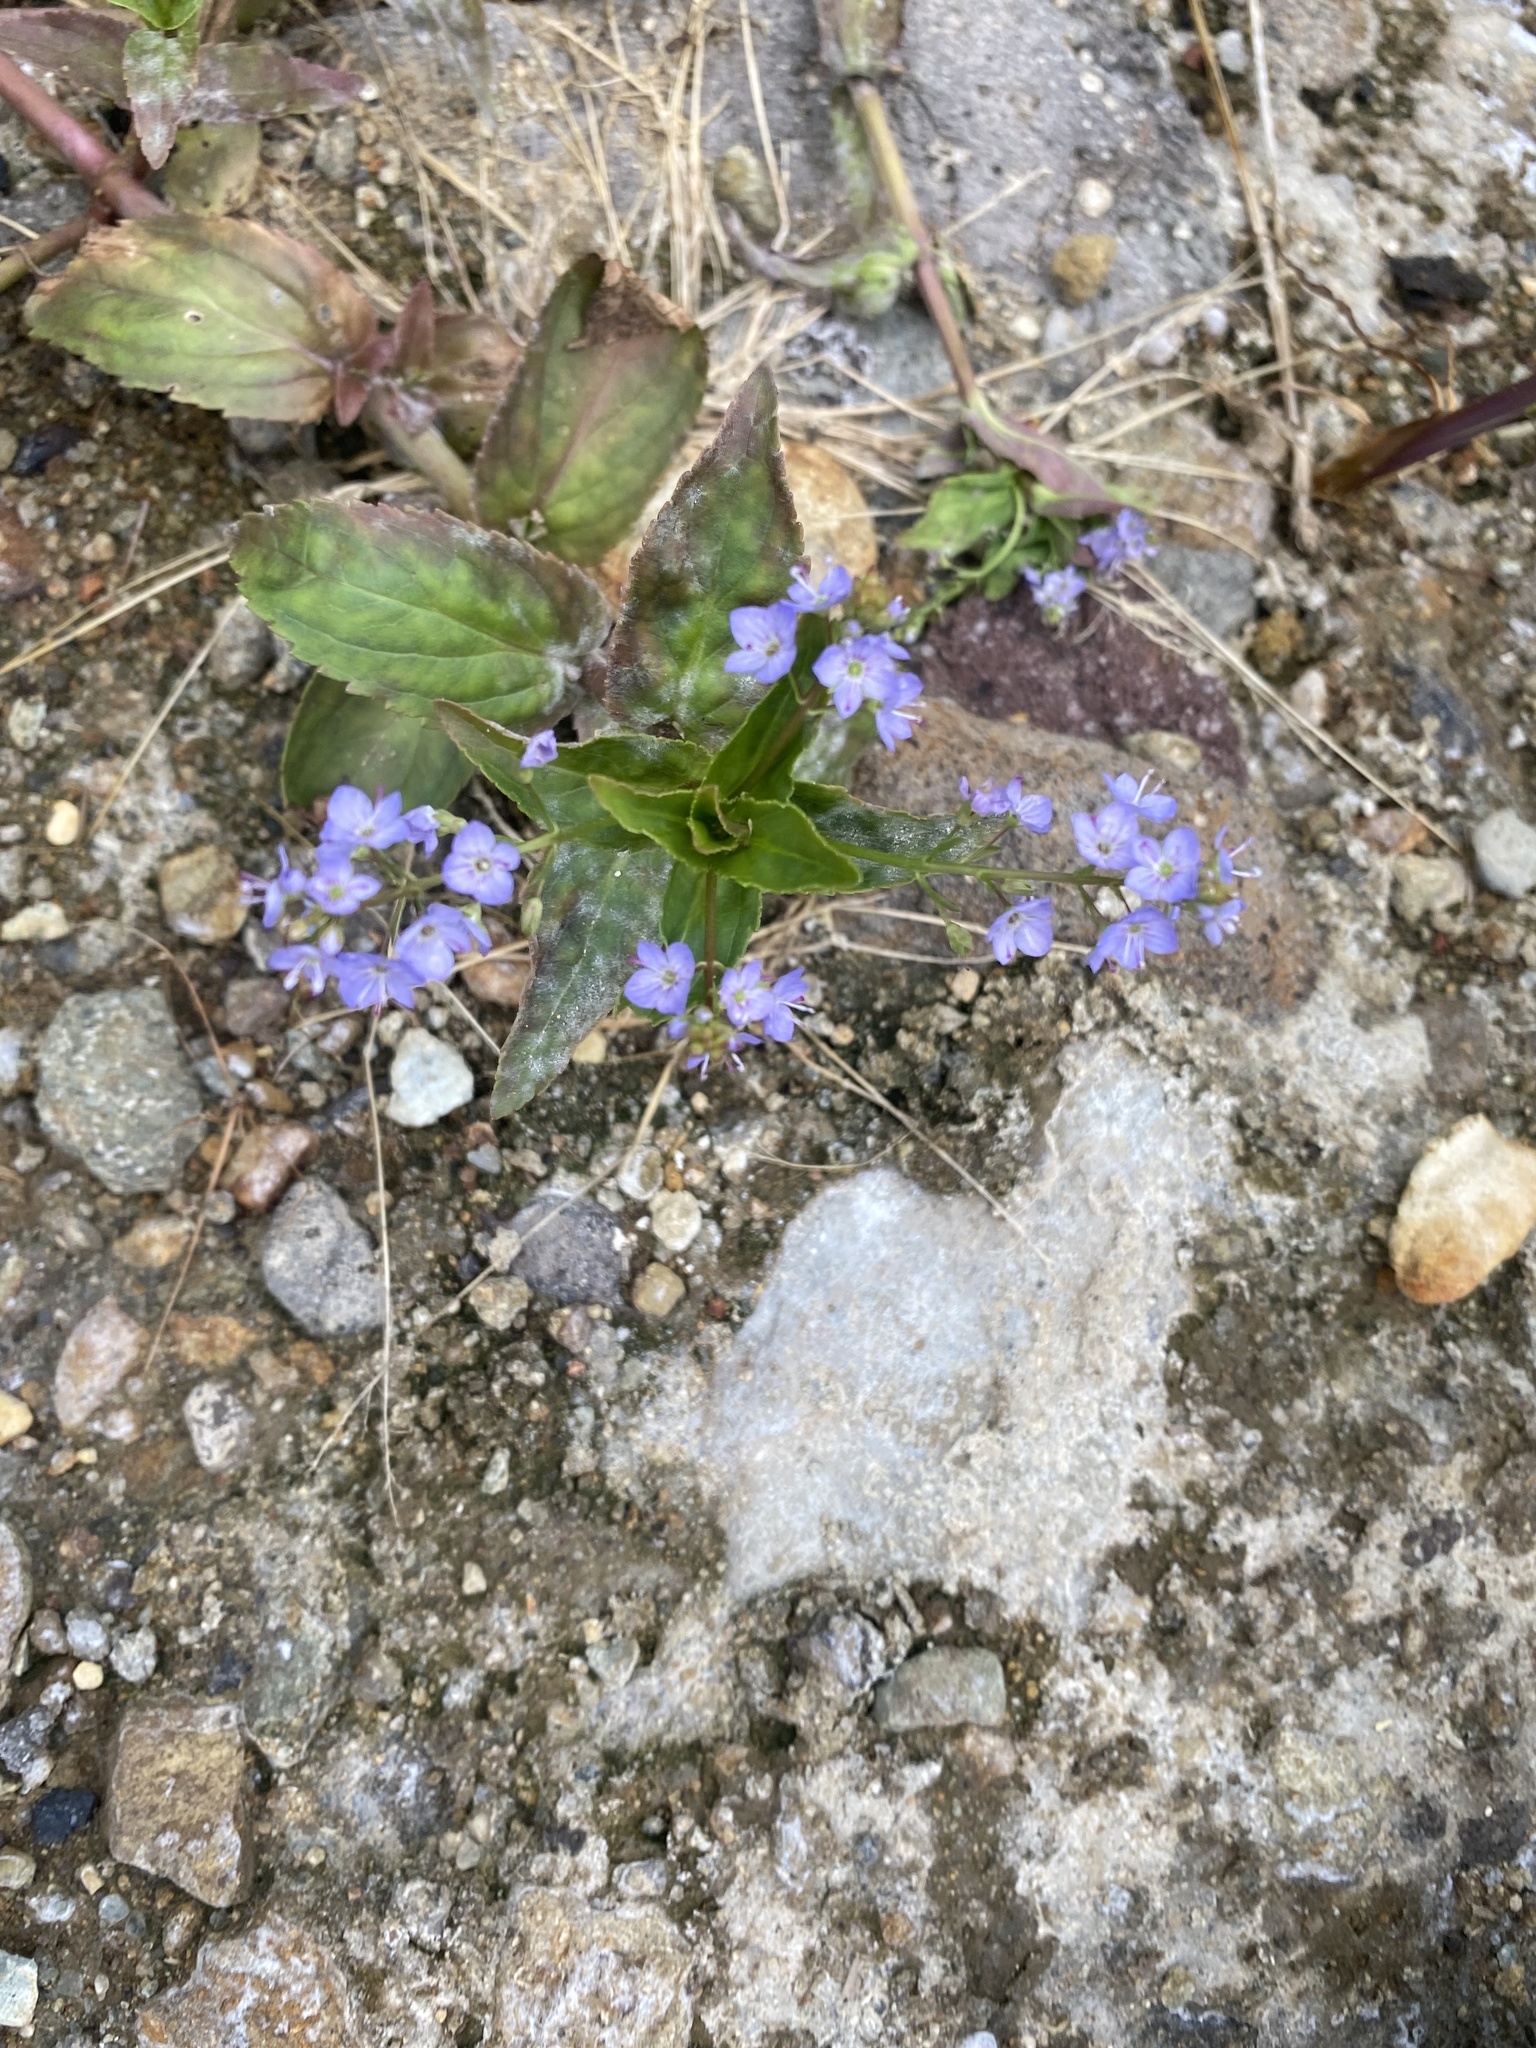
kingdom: Plantae
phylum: Tracheophyta
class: Magnoliopsida
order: Lamiales
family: Plantaginaceae
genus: Veronica
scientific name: Veronica americana
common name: American brooklime
